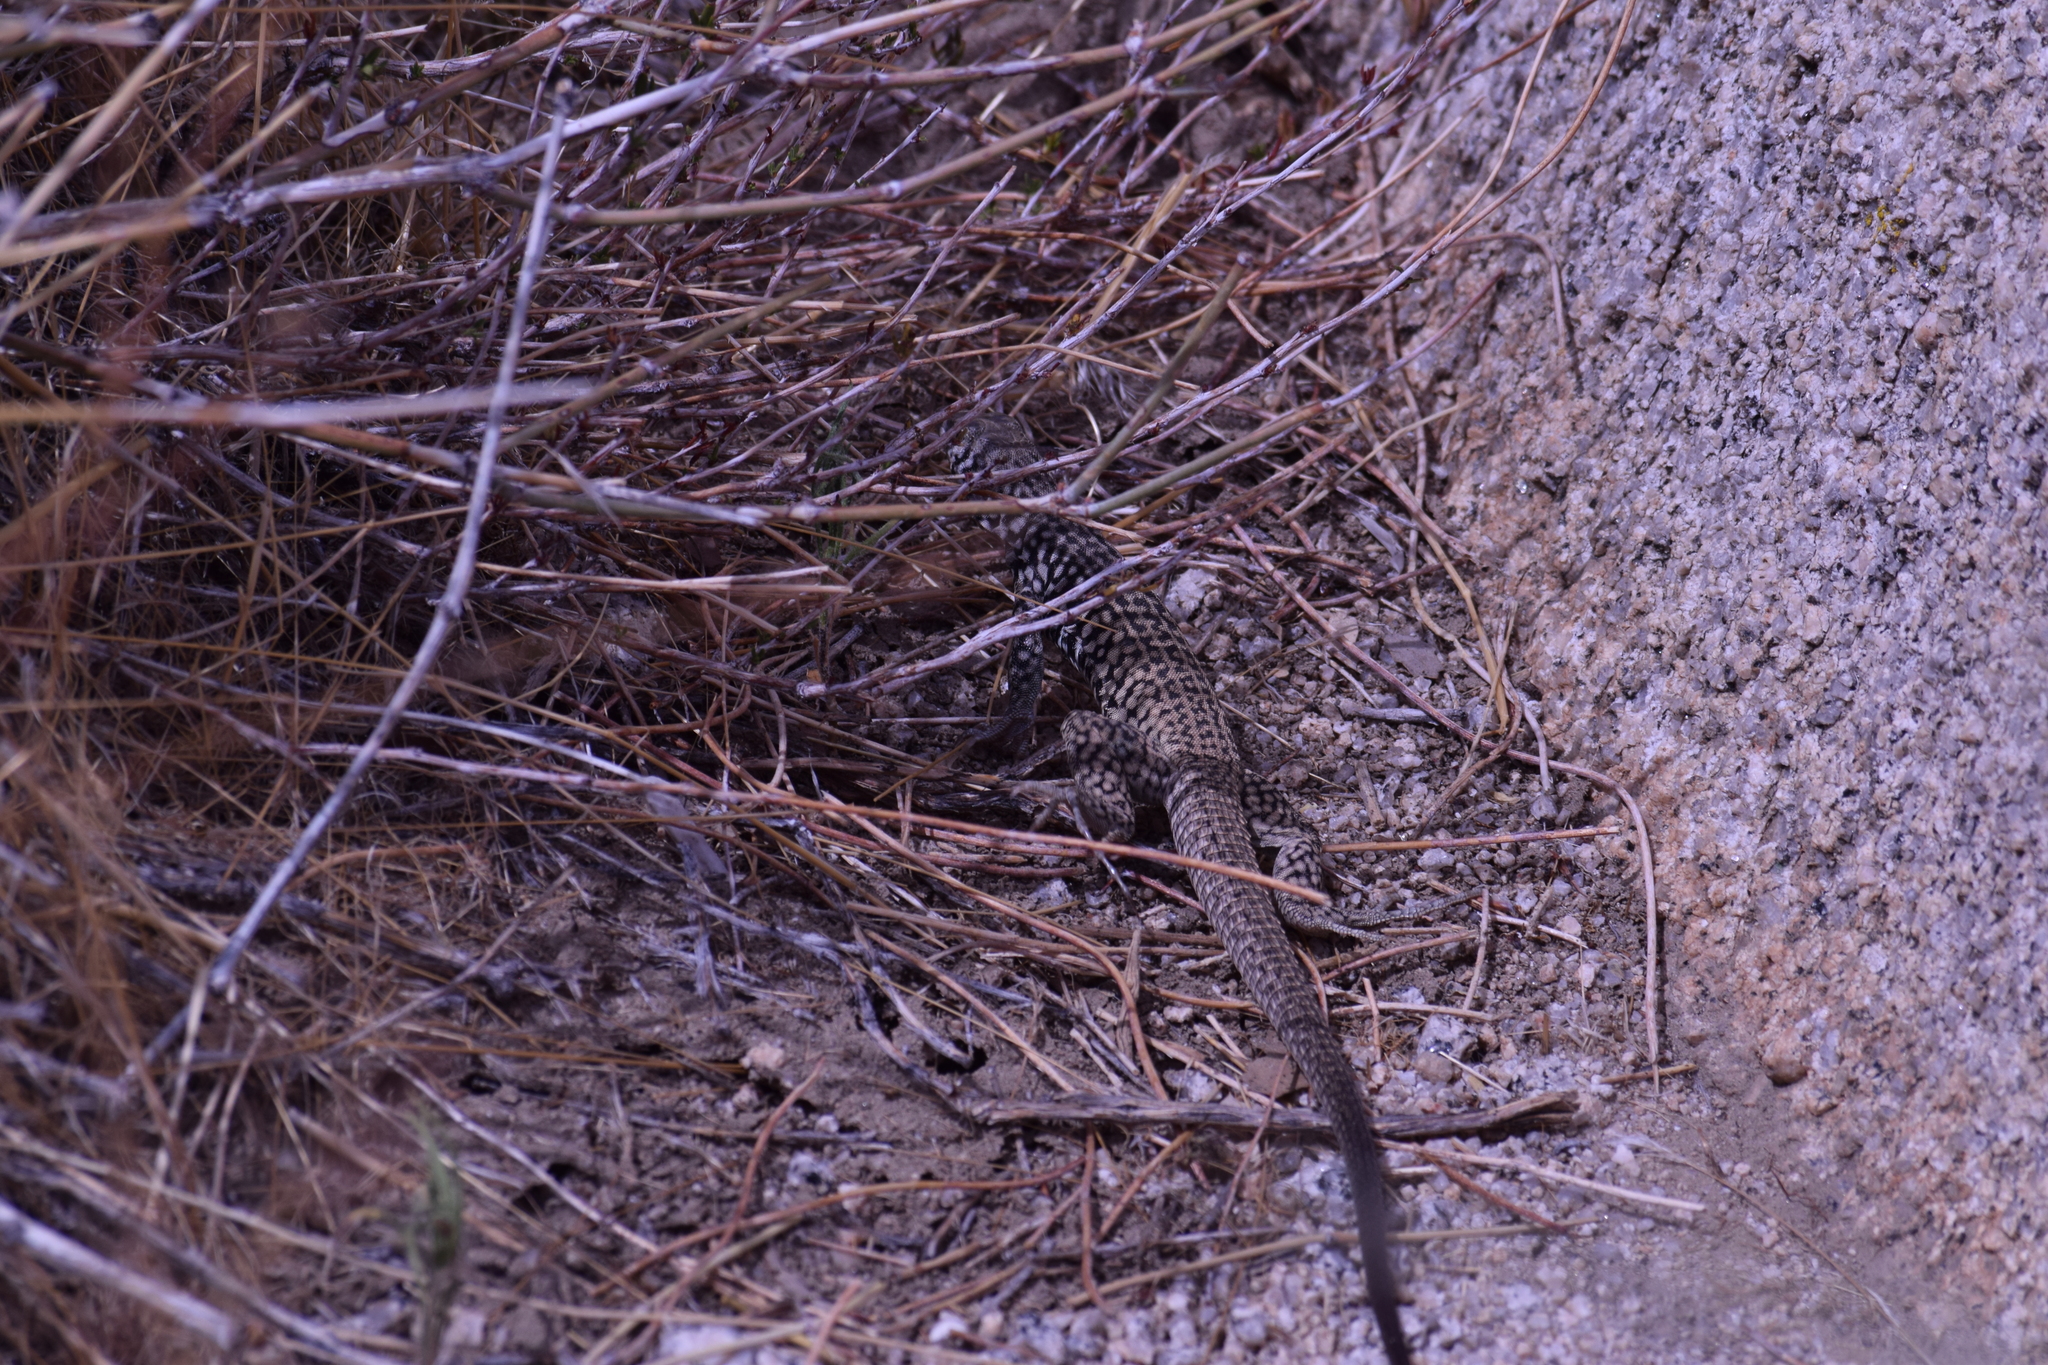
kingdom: Animalia
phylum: Chordata
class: Squamata
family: Teiidae
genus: Aspidoscelis
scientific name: Aspidoscelis tigris
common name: Tiger whiptail
